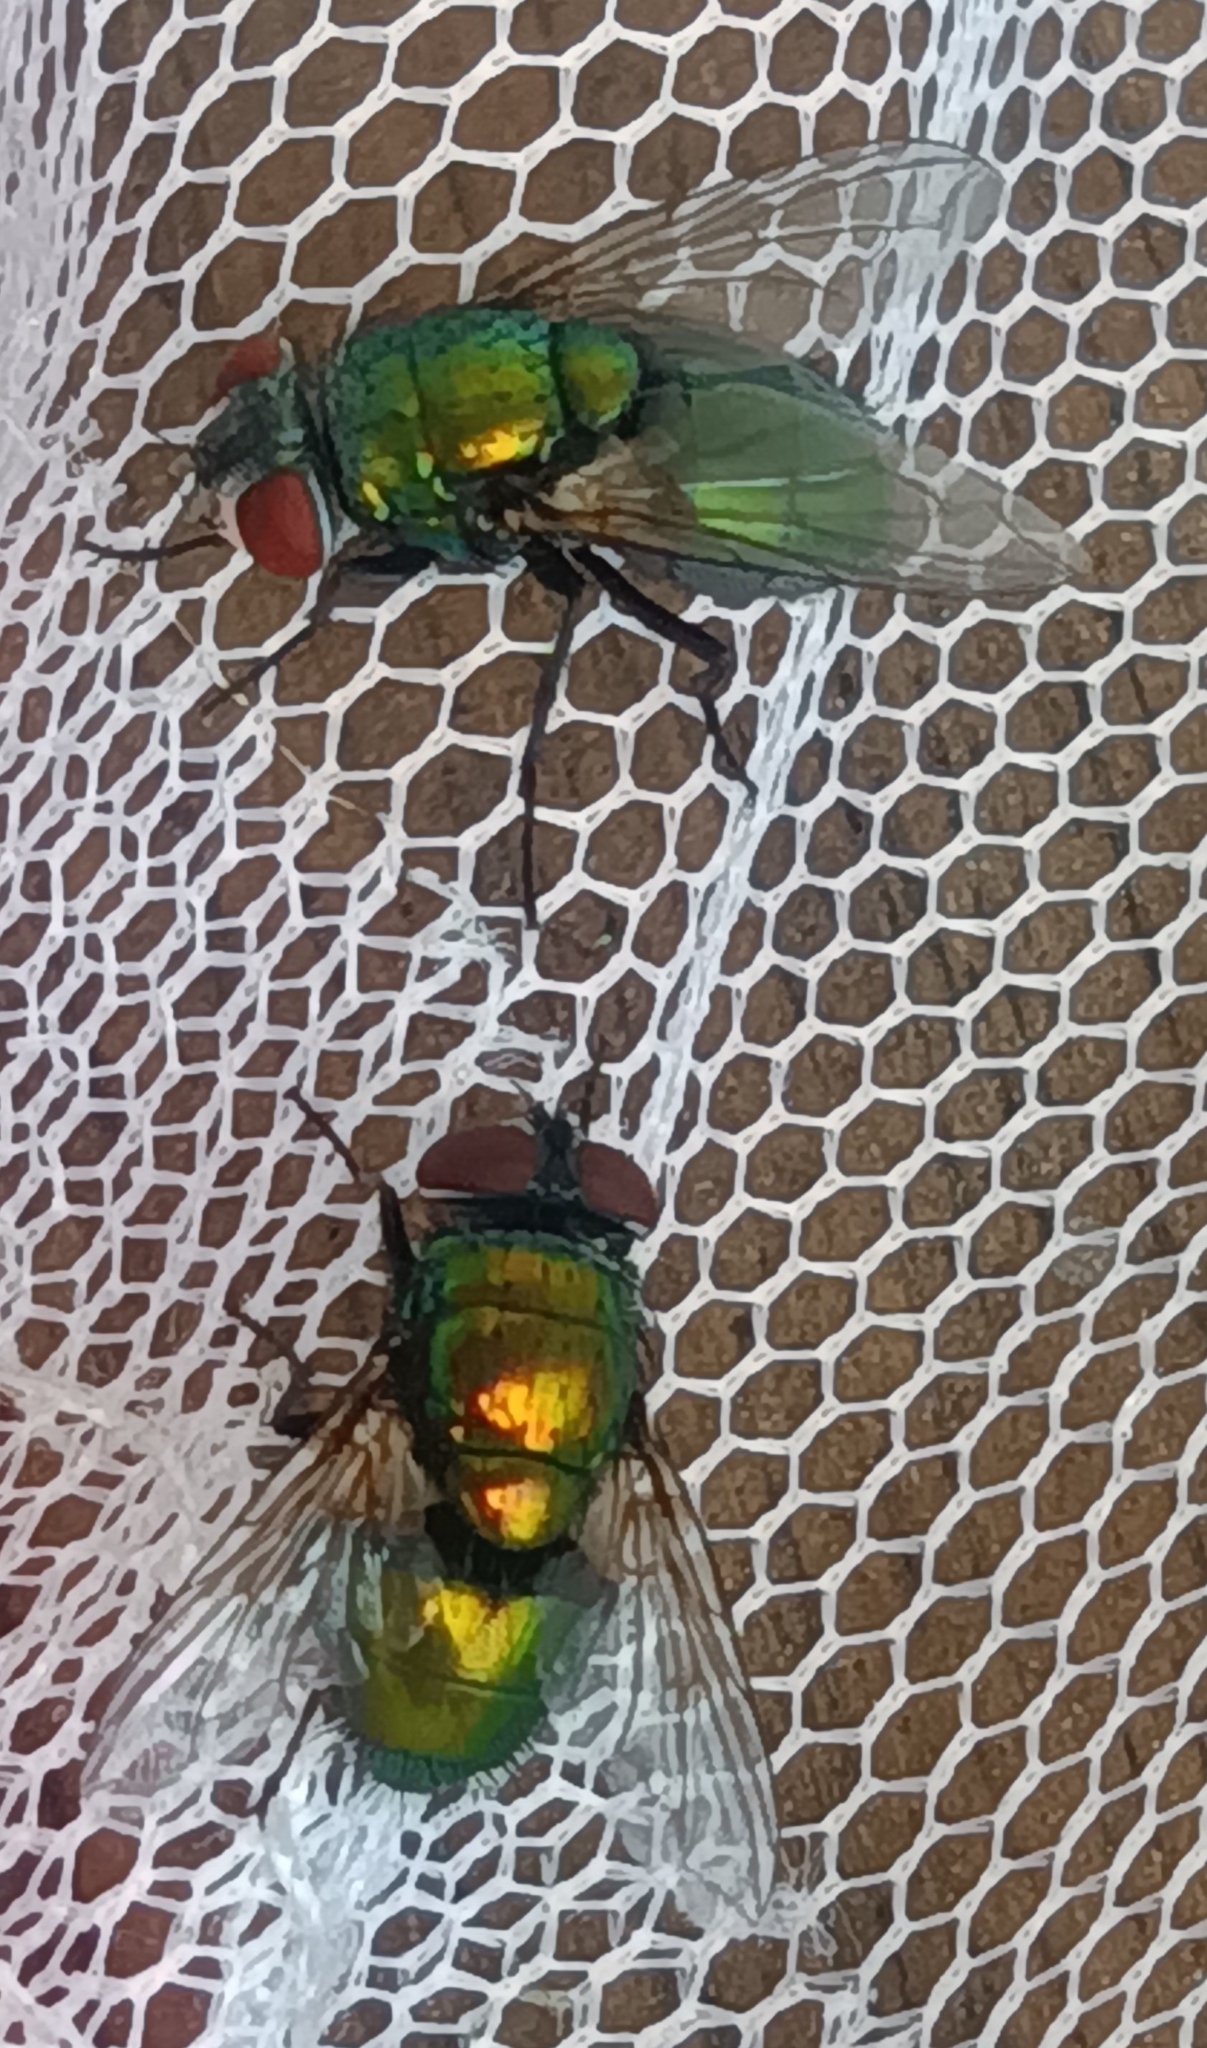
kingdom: Animalia
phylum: Arthropoda
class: Insecta
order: Diptera
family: Calliphoridae
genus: Lucilia
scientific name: Lucilia sericata
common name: Blow fly
